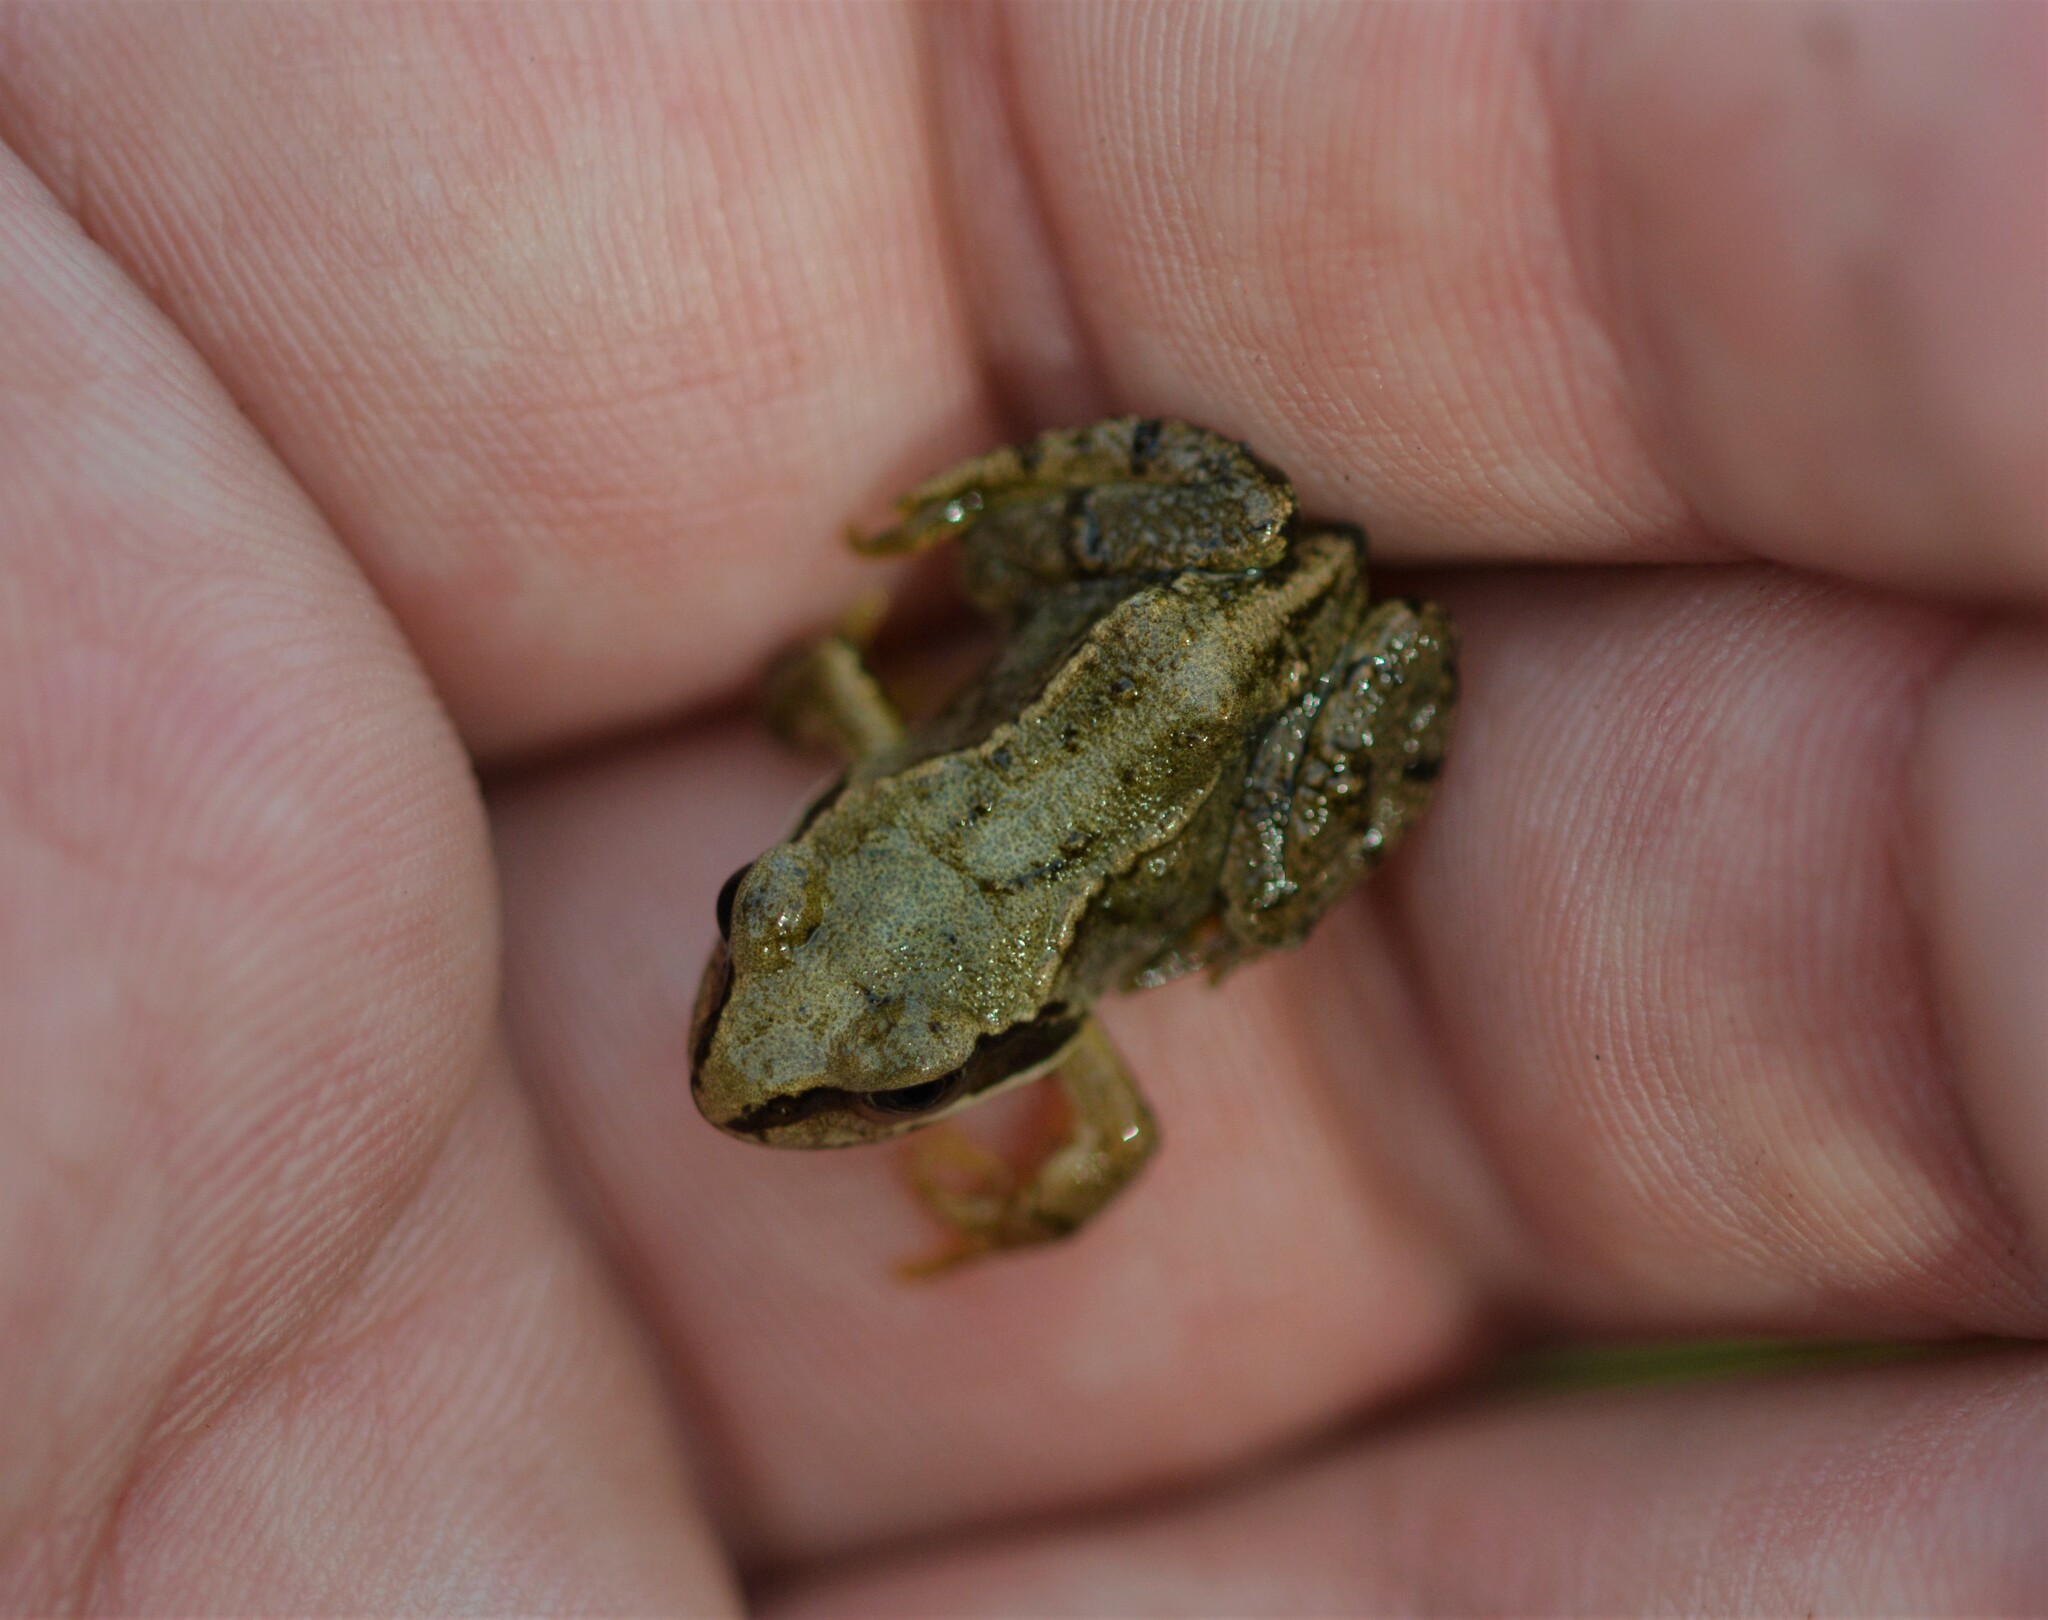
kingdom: Animalia
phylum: Chordata
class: Amphibia
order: Anura
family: Ranidae
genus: Rana
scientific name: Rana temporaria
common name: Common frog
